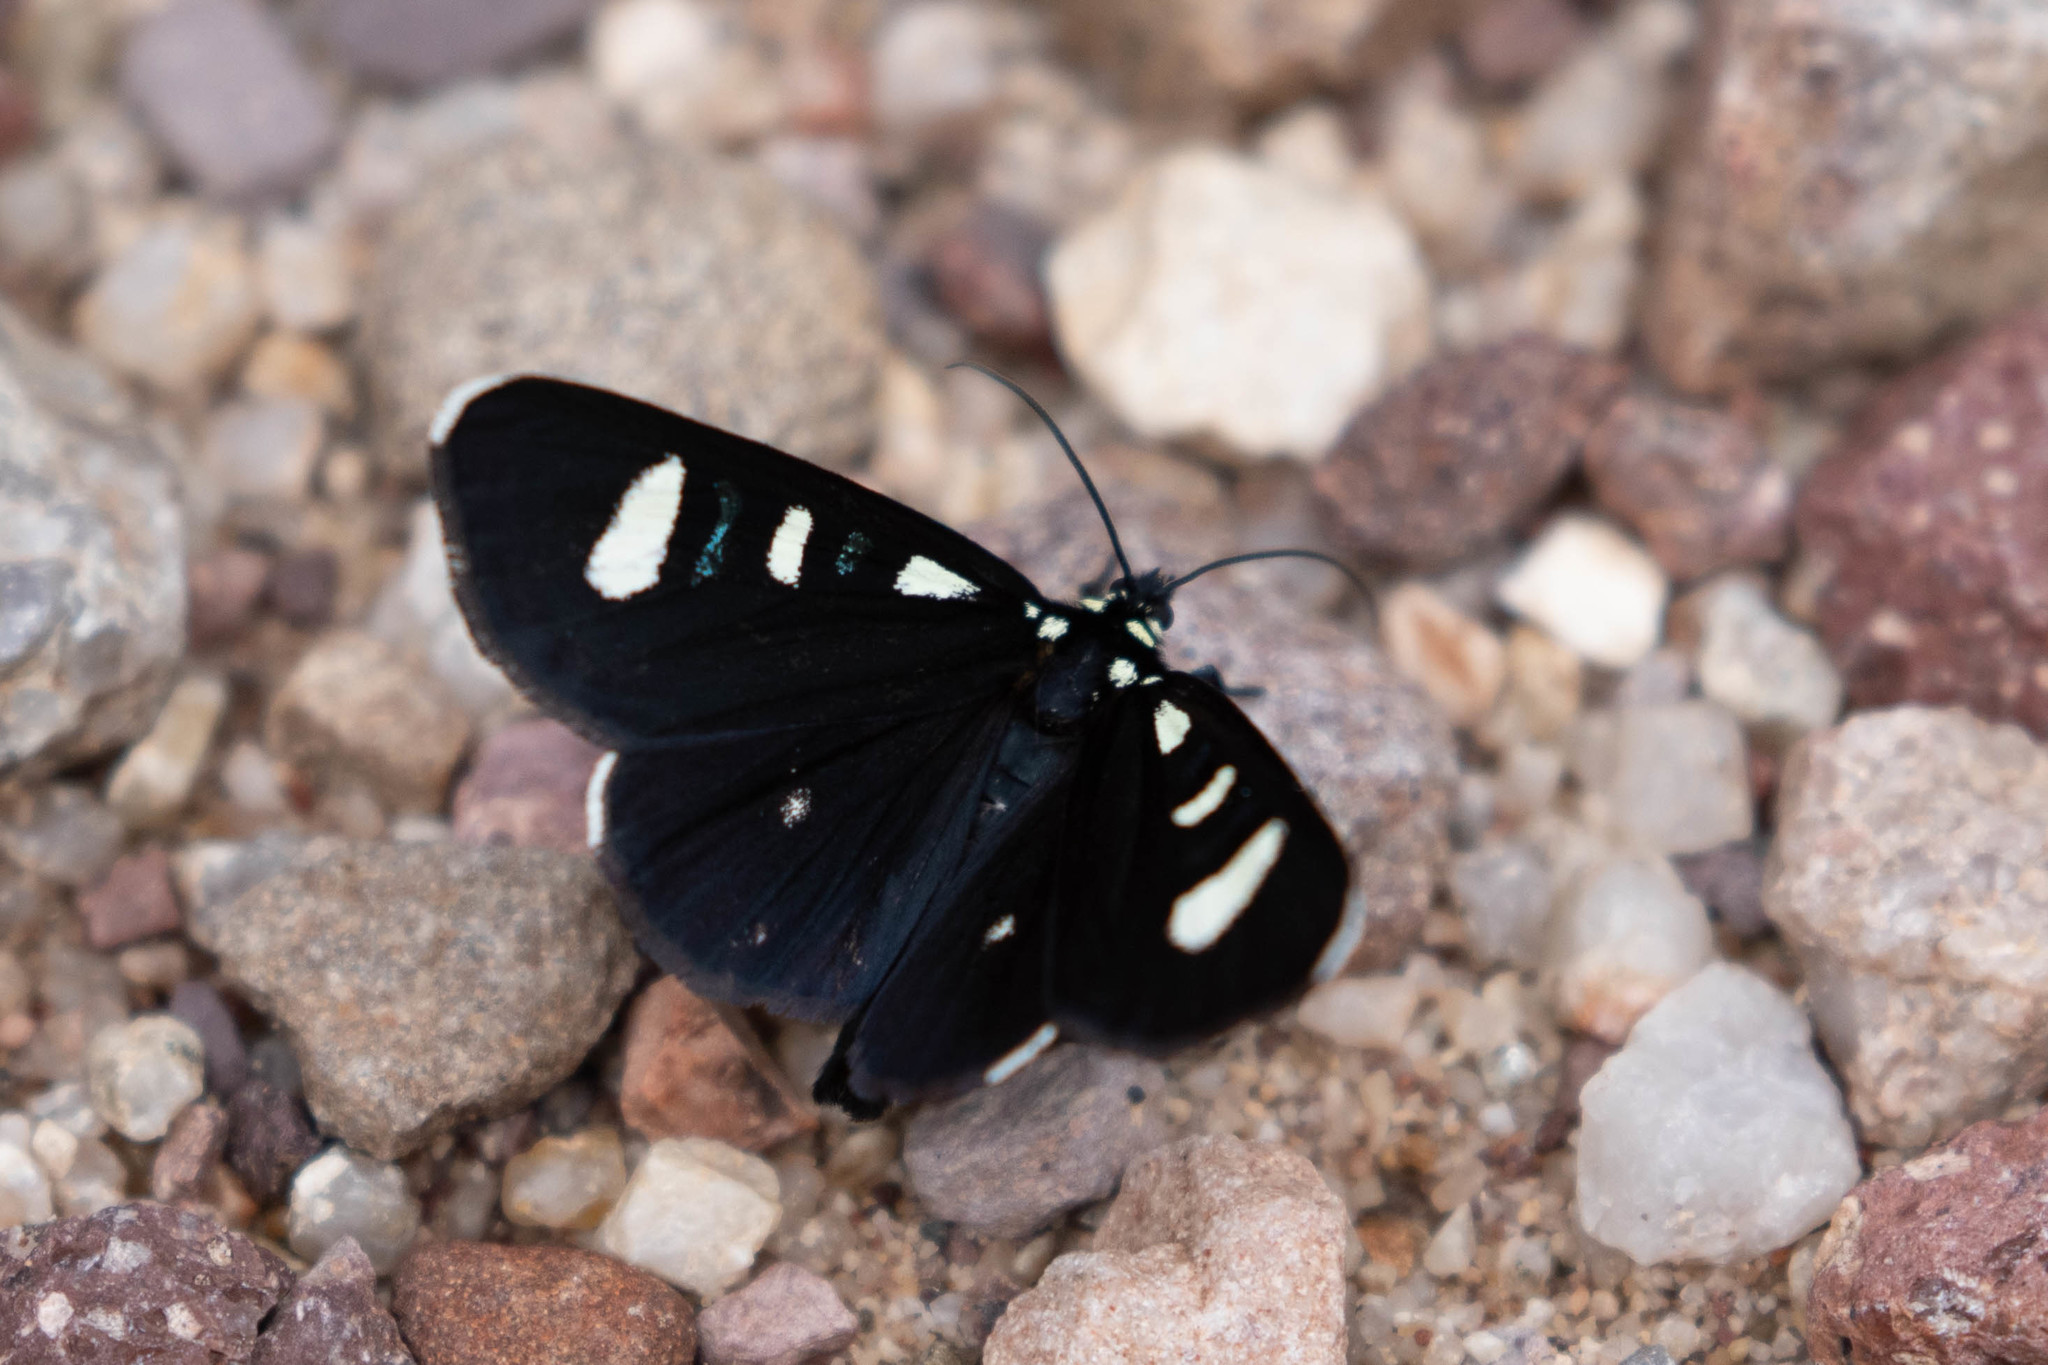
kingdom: Animalia
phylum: Arthropoda
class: Insecta
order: Lepidoptera
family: Noctuidae
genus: Alypiodes
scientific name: Alypiodes bimaculata
